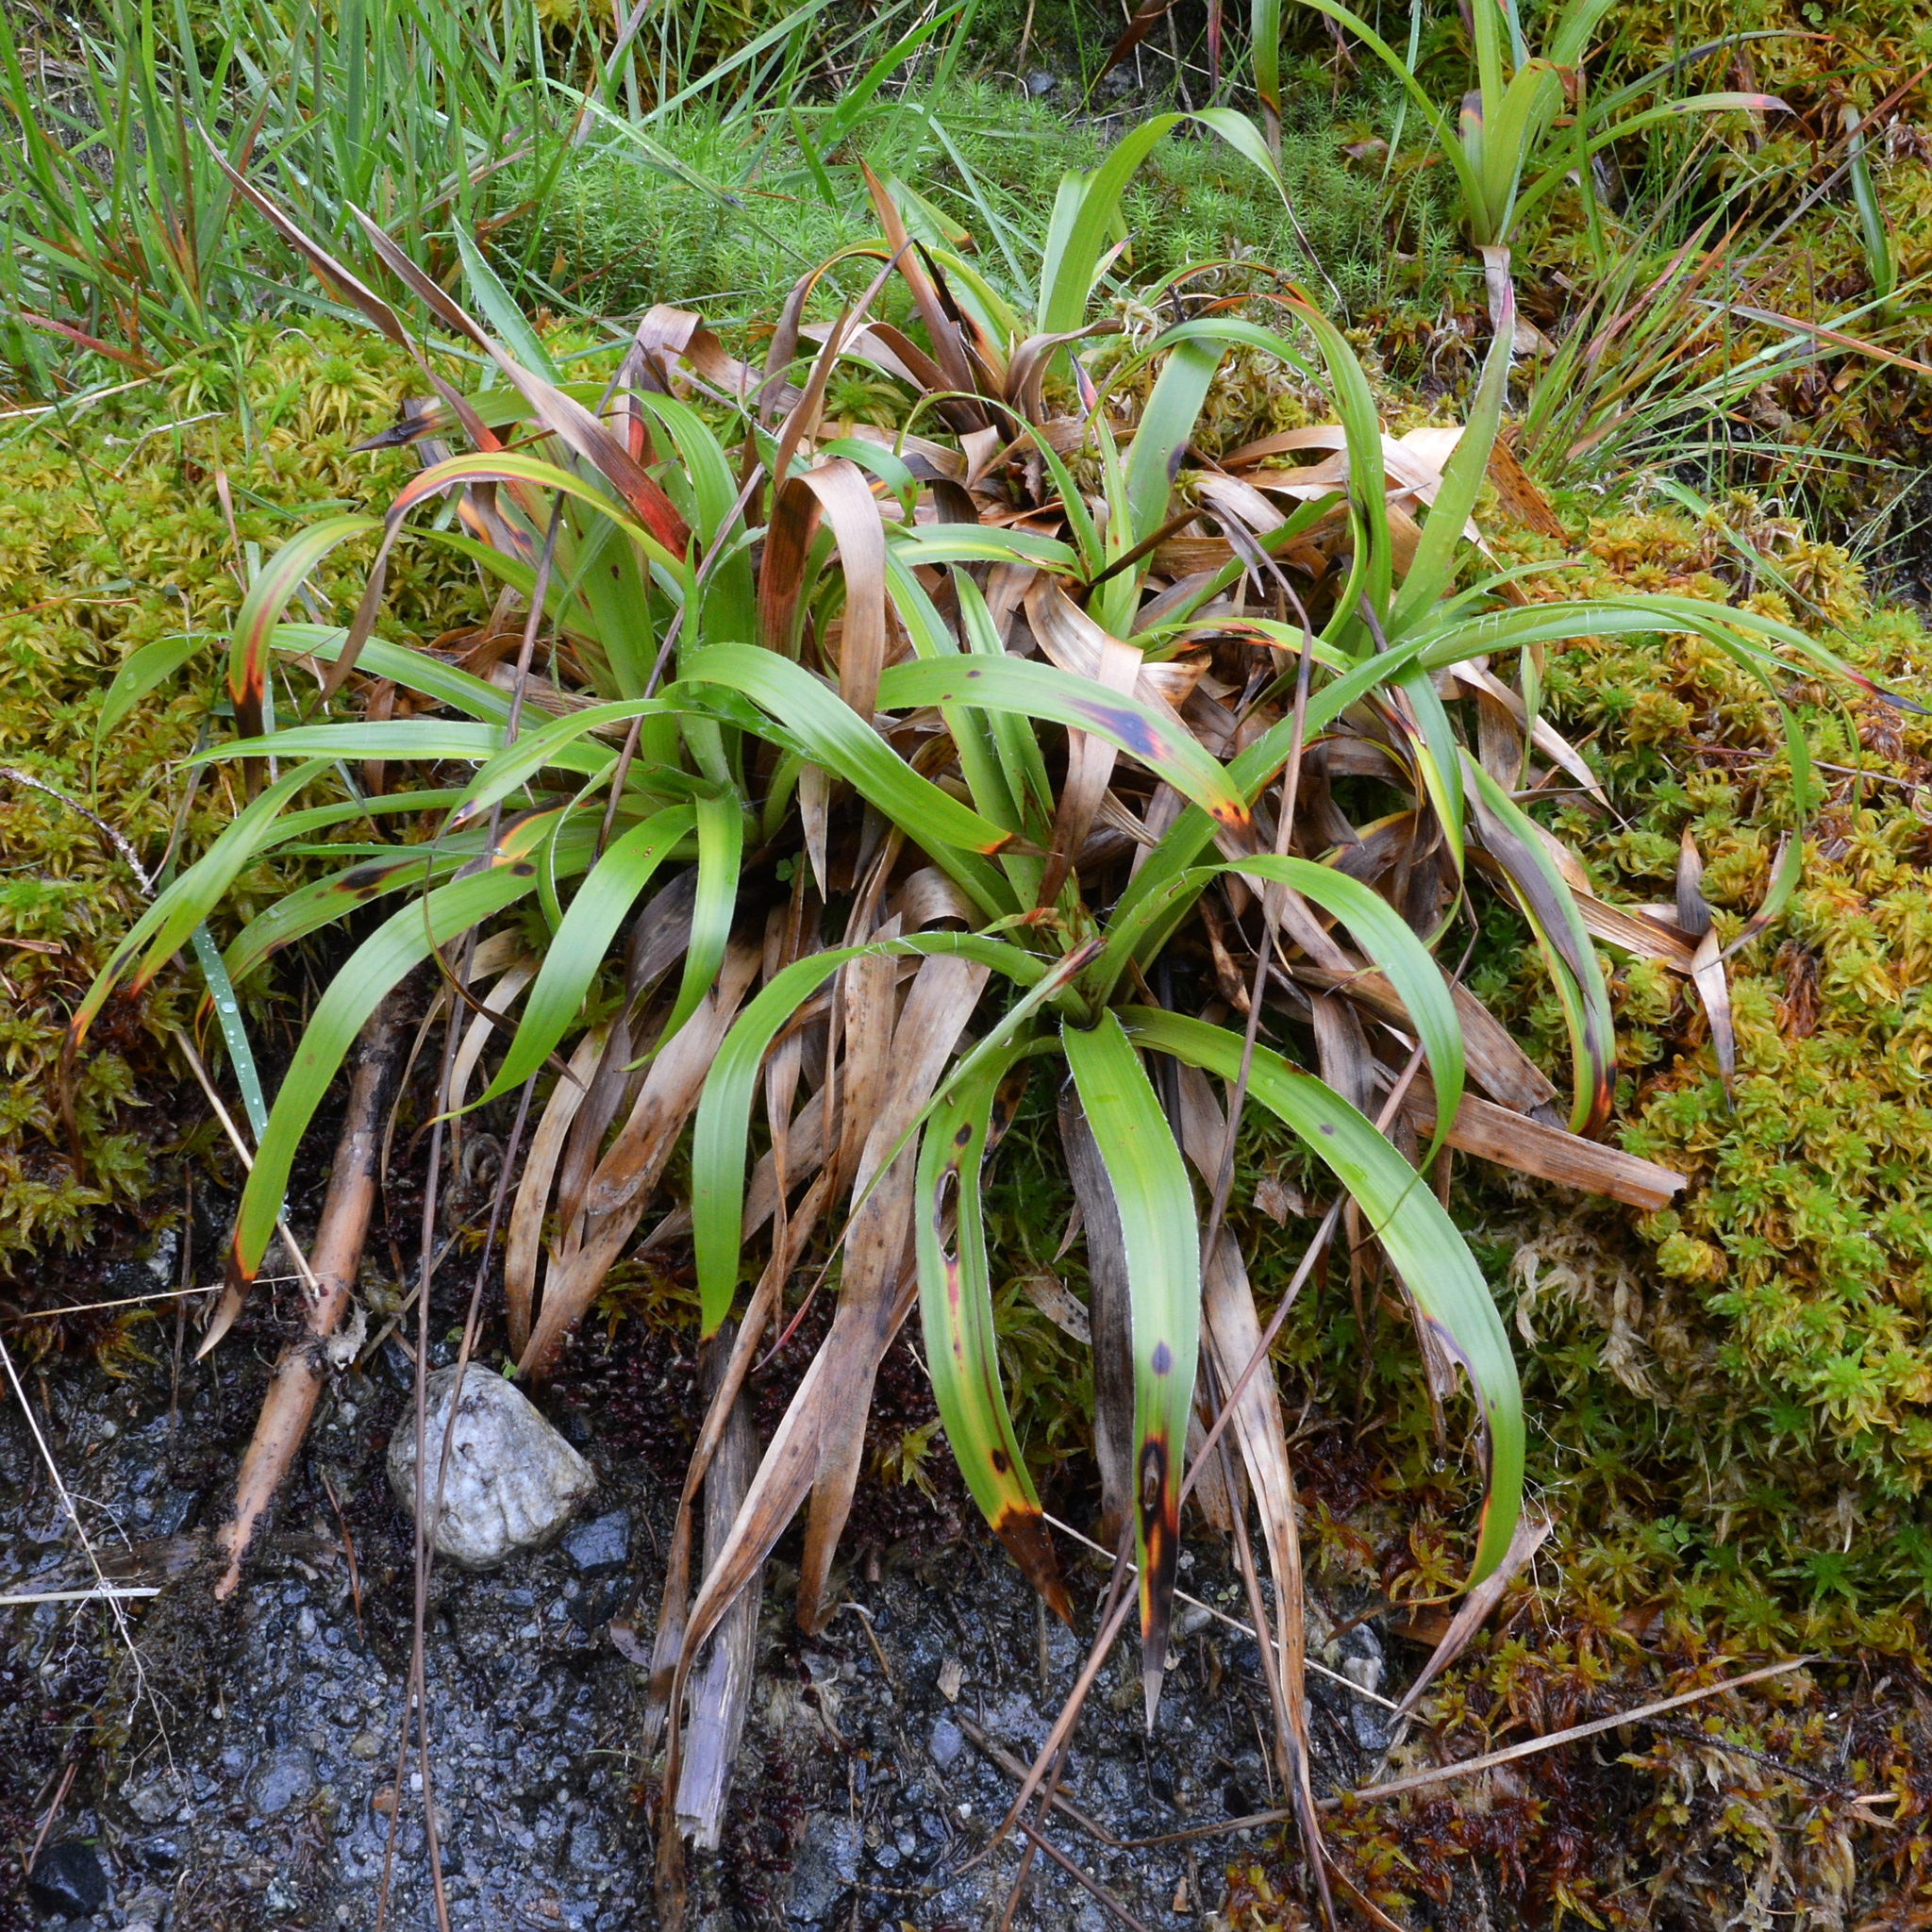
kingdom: Plantae
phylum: Tracheophyta
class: Liliopsida
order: Poales
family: Juncaceae
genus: Luzula
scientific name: Luzula sylvatica
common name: Great wood-rush
